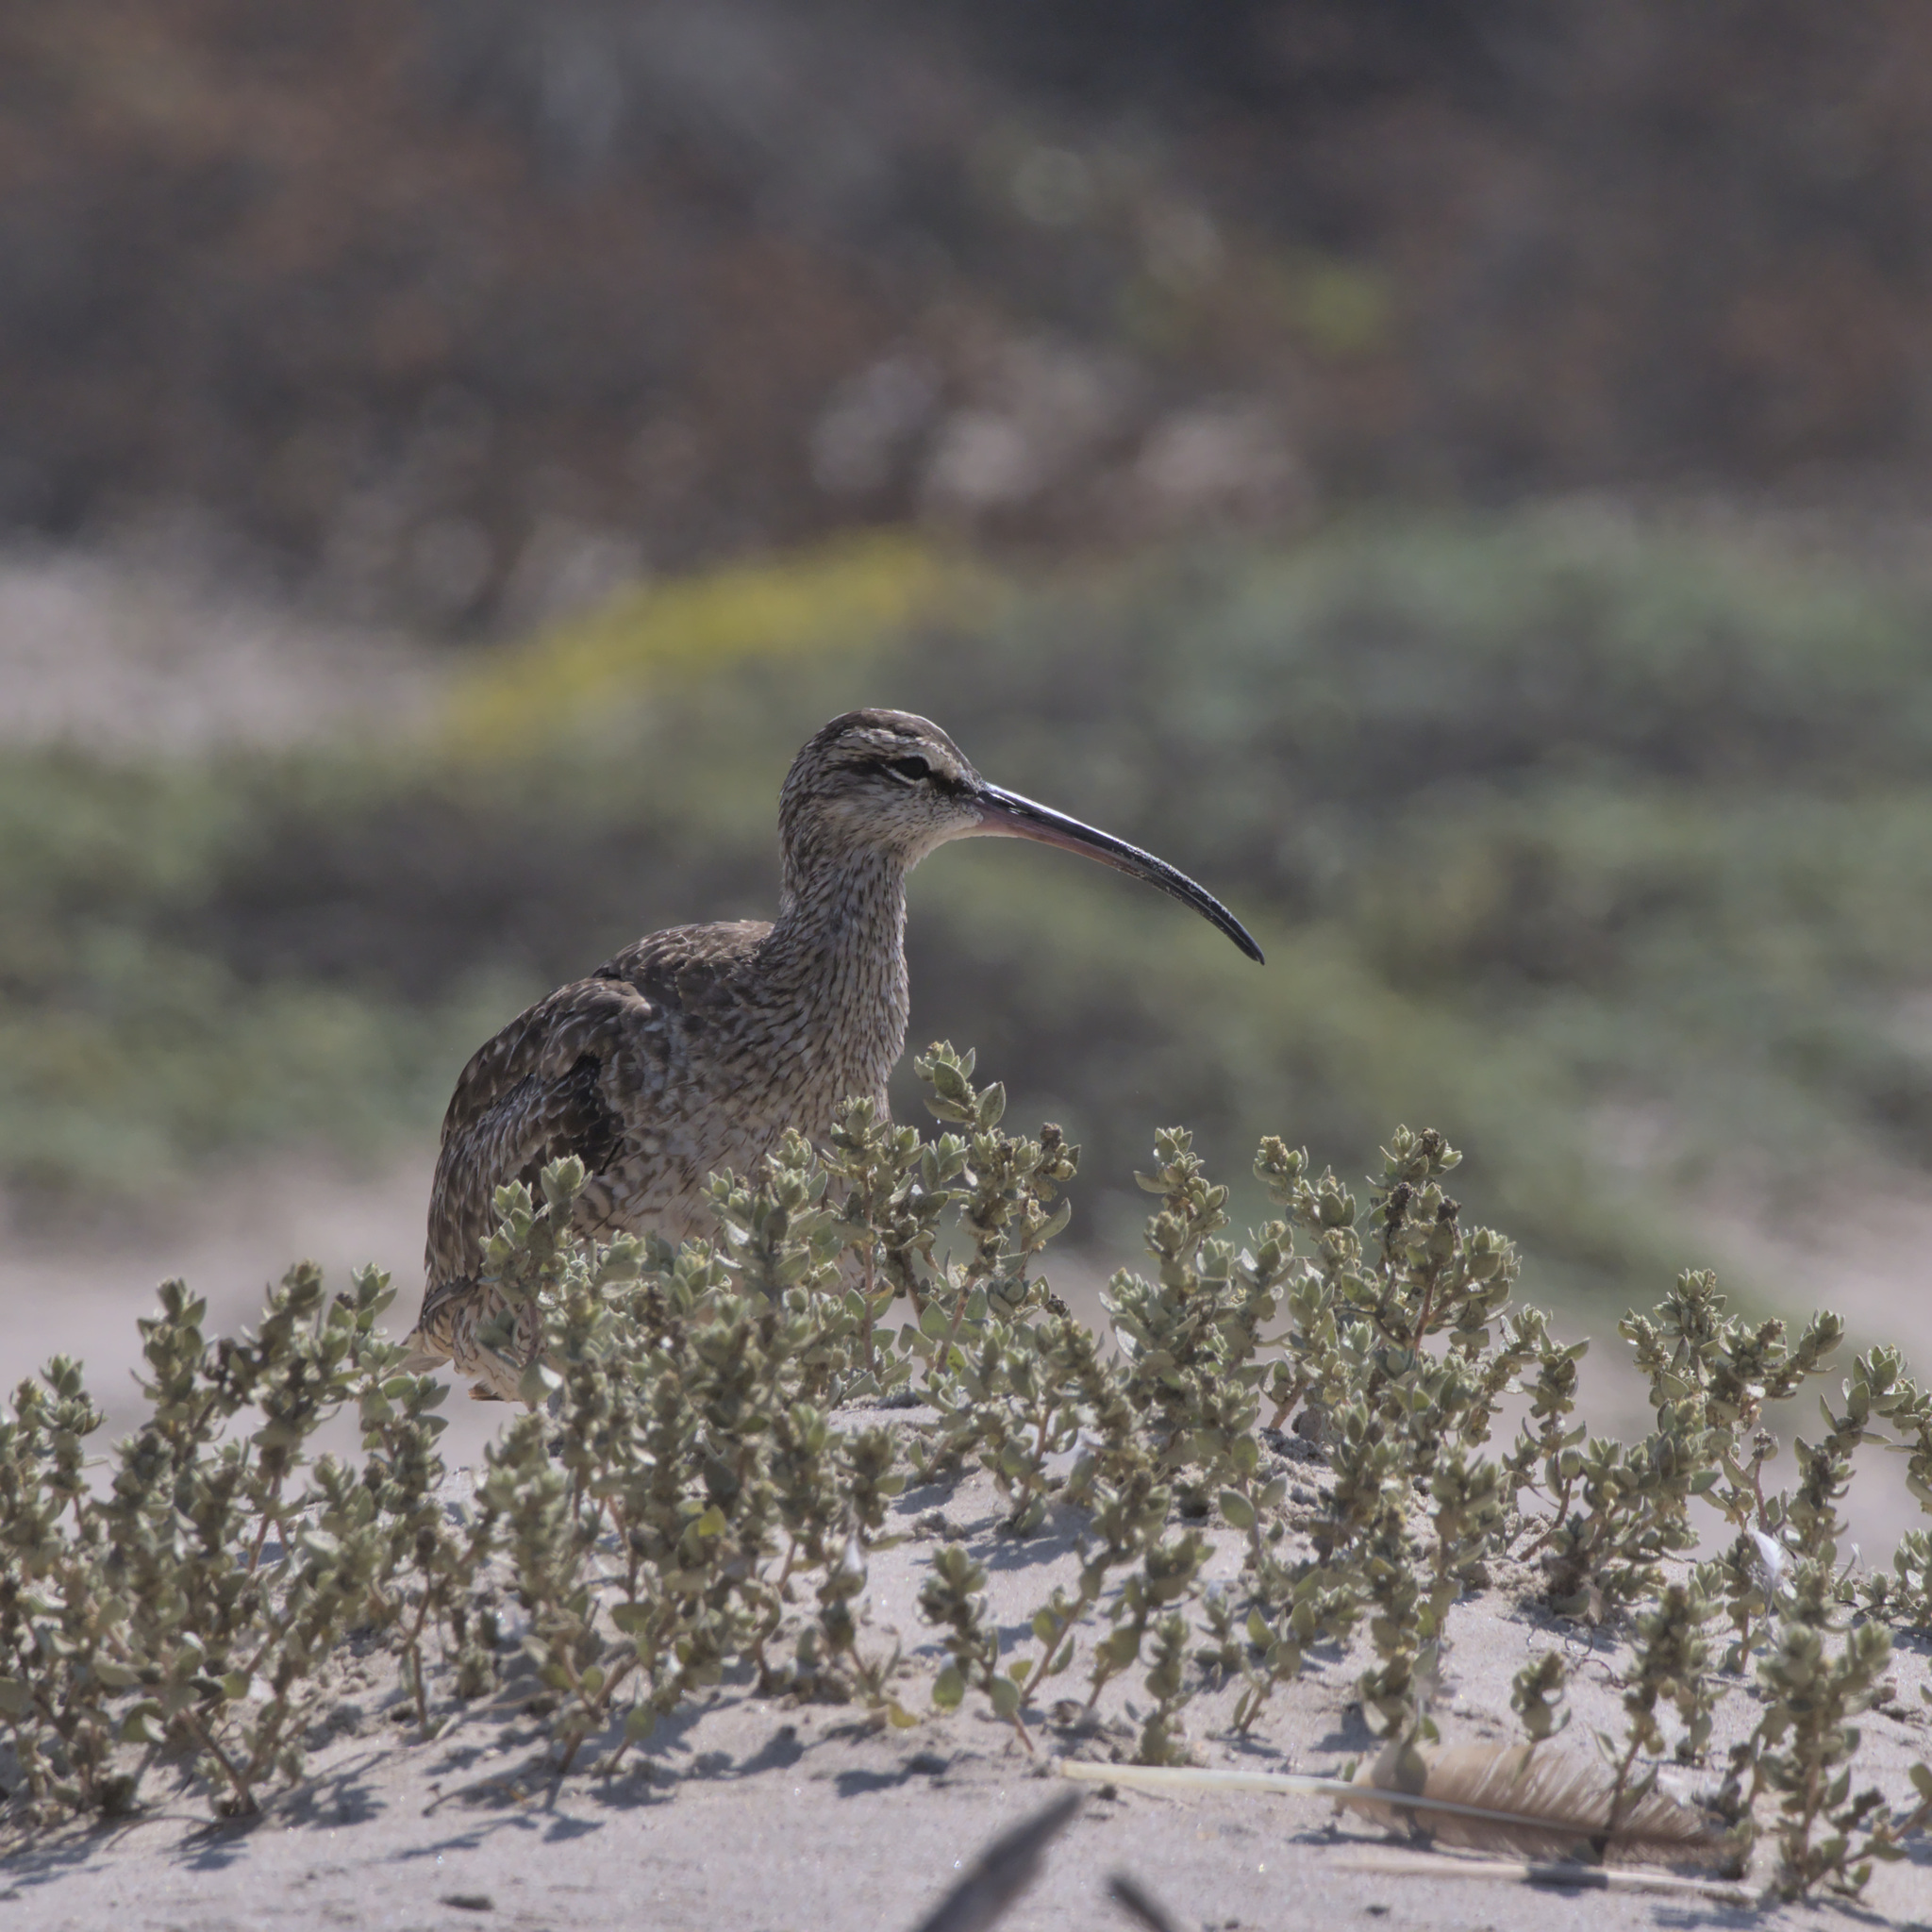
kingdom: Animalia
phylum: Chordata
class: Aves
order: Charadriiformes
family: Scolopacidae
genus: Numenius
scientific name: Numenius phaeopus
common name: Whimbrel
